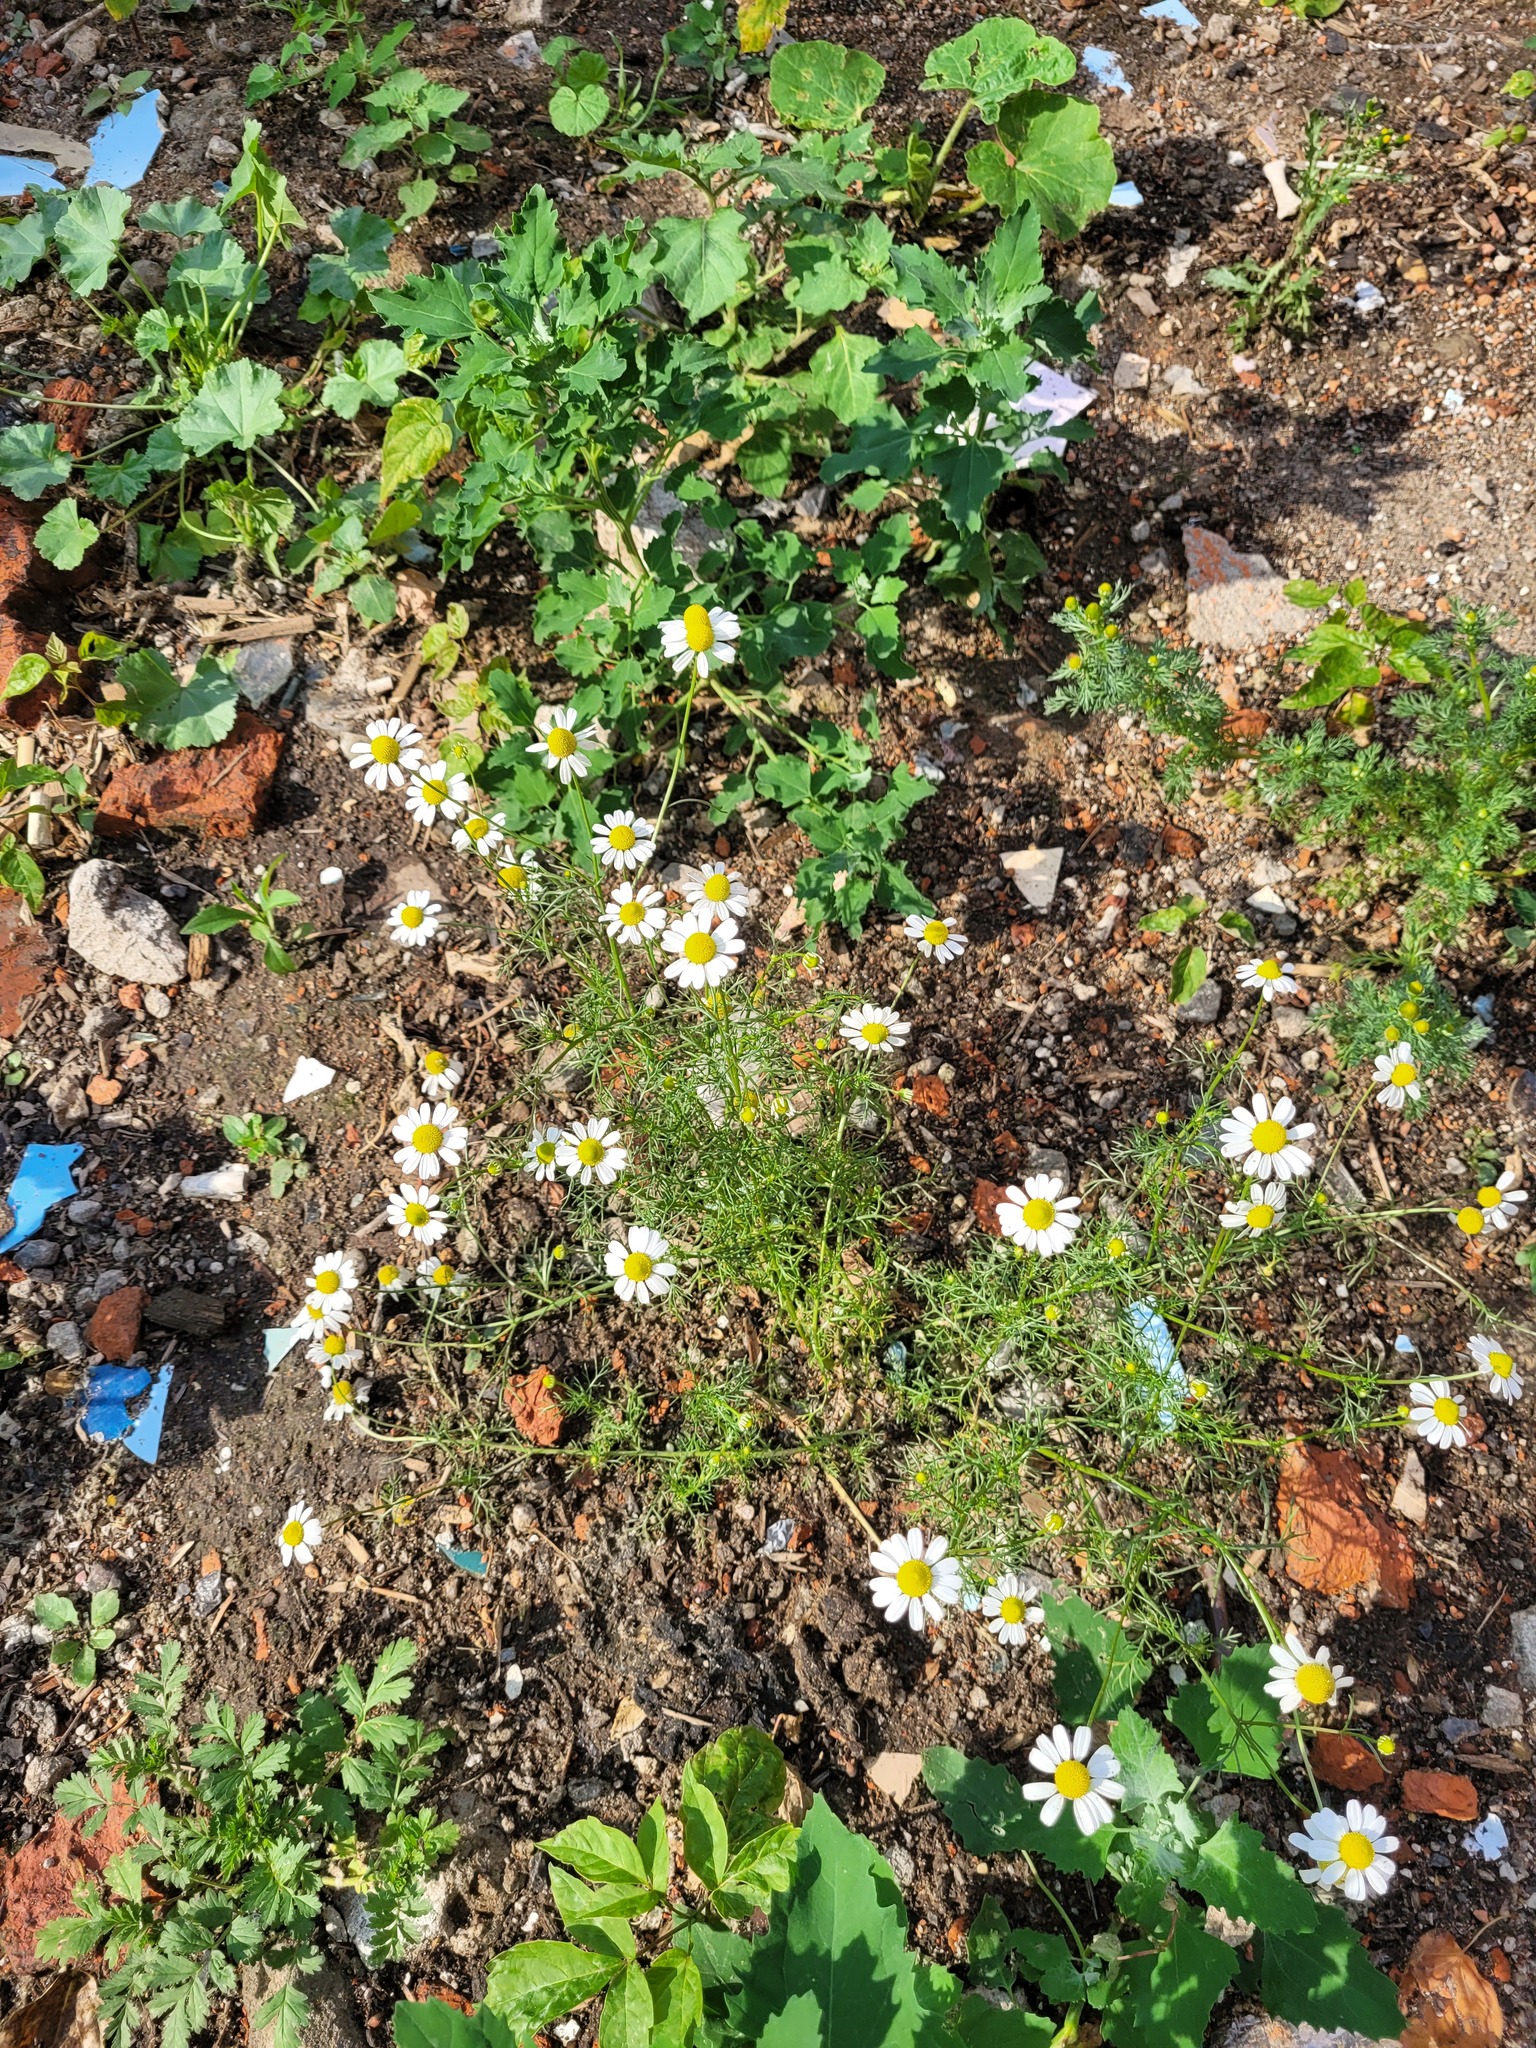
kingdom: Plantae
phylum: Tracheophyta
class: Magnoliopsida
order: Asterales
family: Asteraceae
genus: Matricaria
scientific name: Matricaria chamomilla
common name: Scented mayweed
